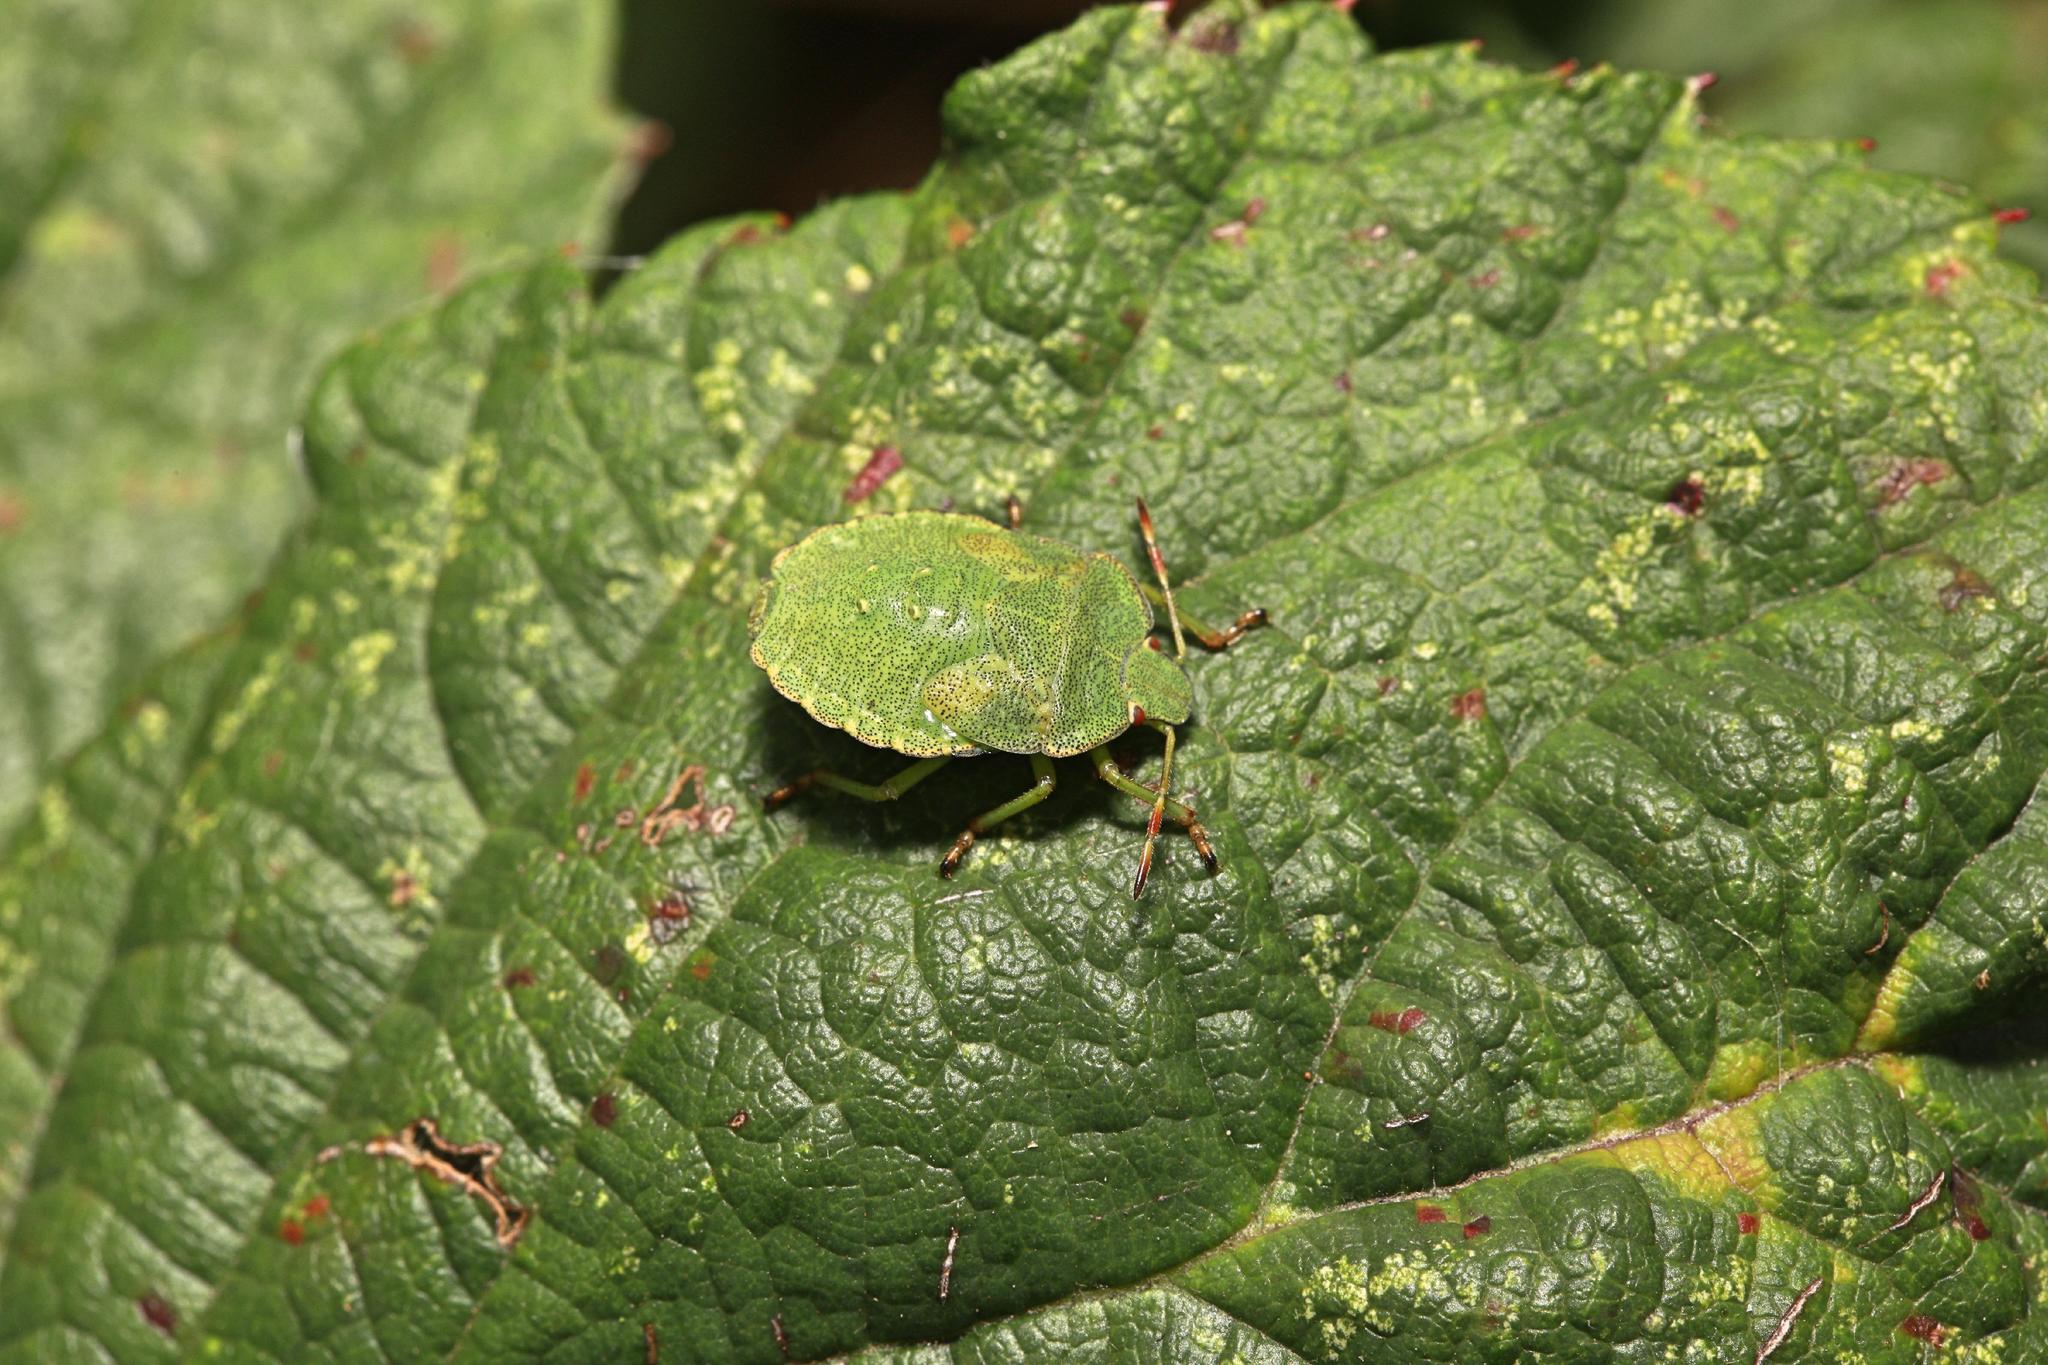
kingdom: Animalia
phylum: Arthropoda
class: Insecta
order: Hemiptera
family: Pentatomidae
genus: Palomena
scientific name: Palomena prasina
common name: Green shieldbug
